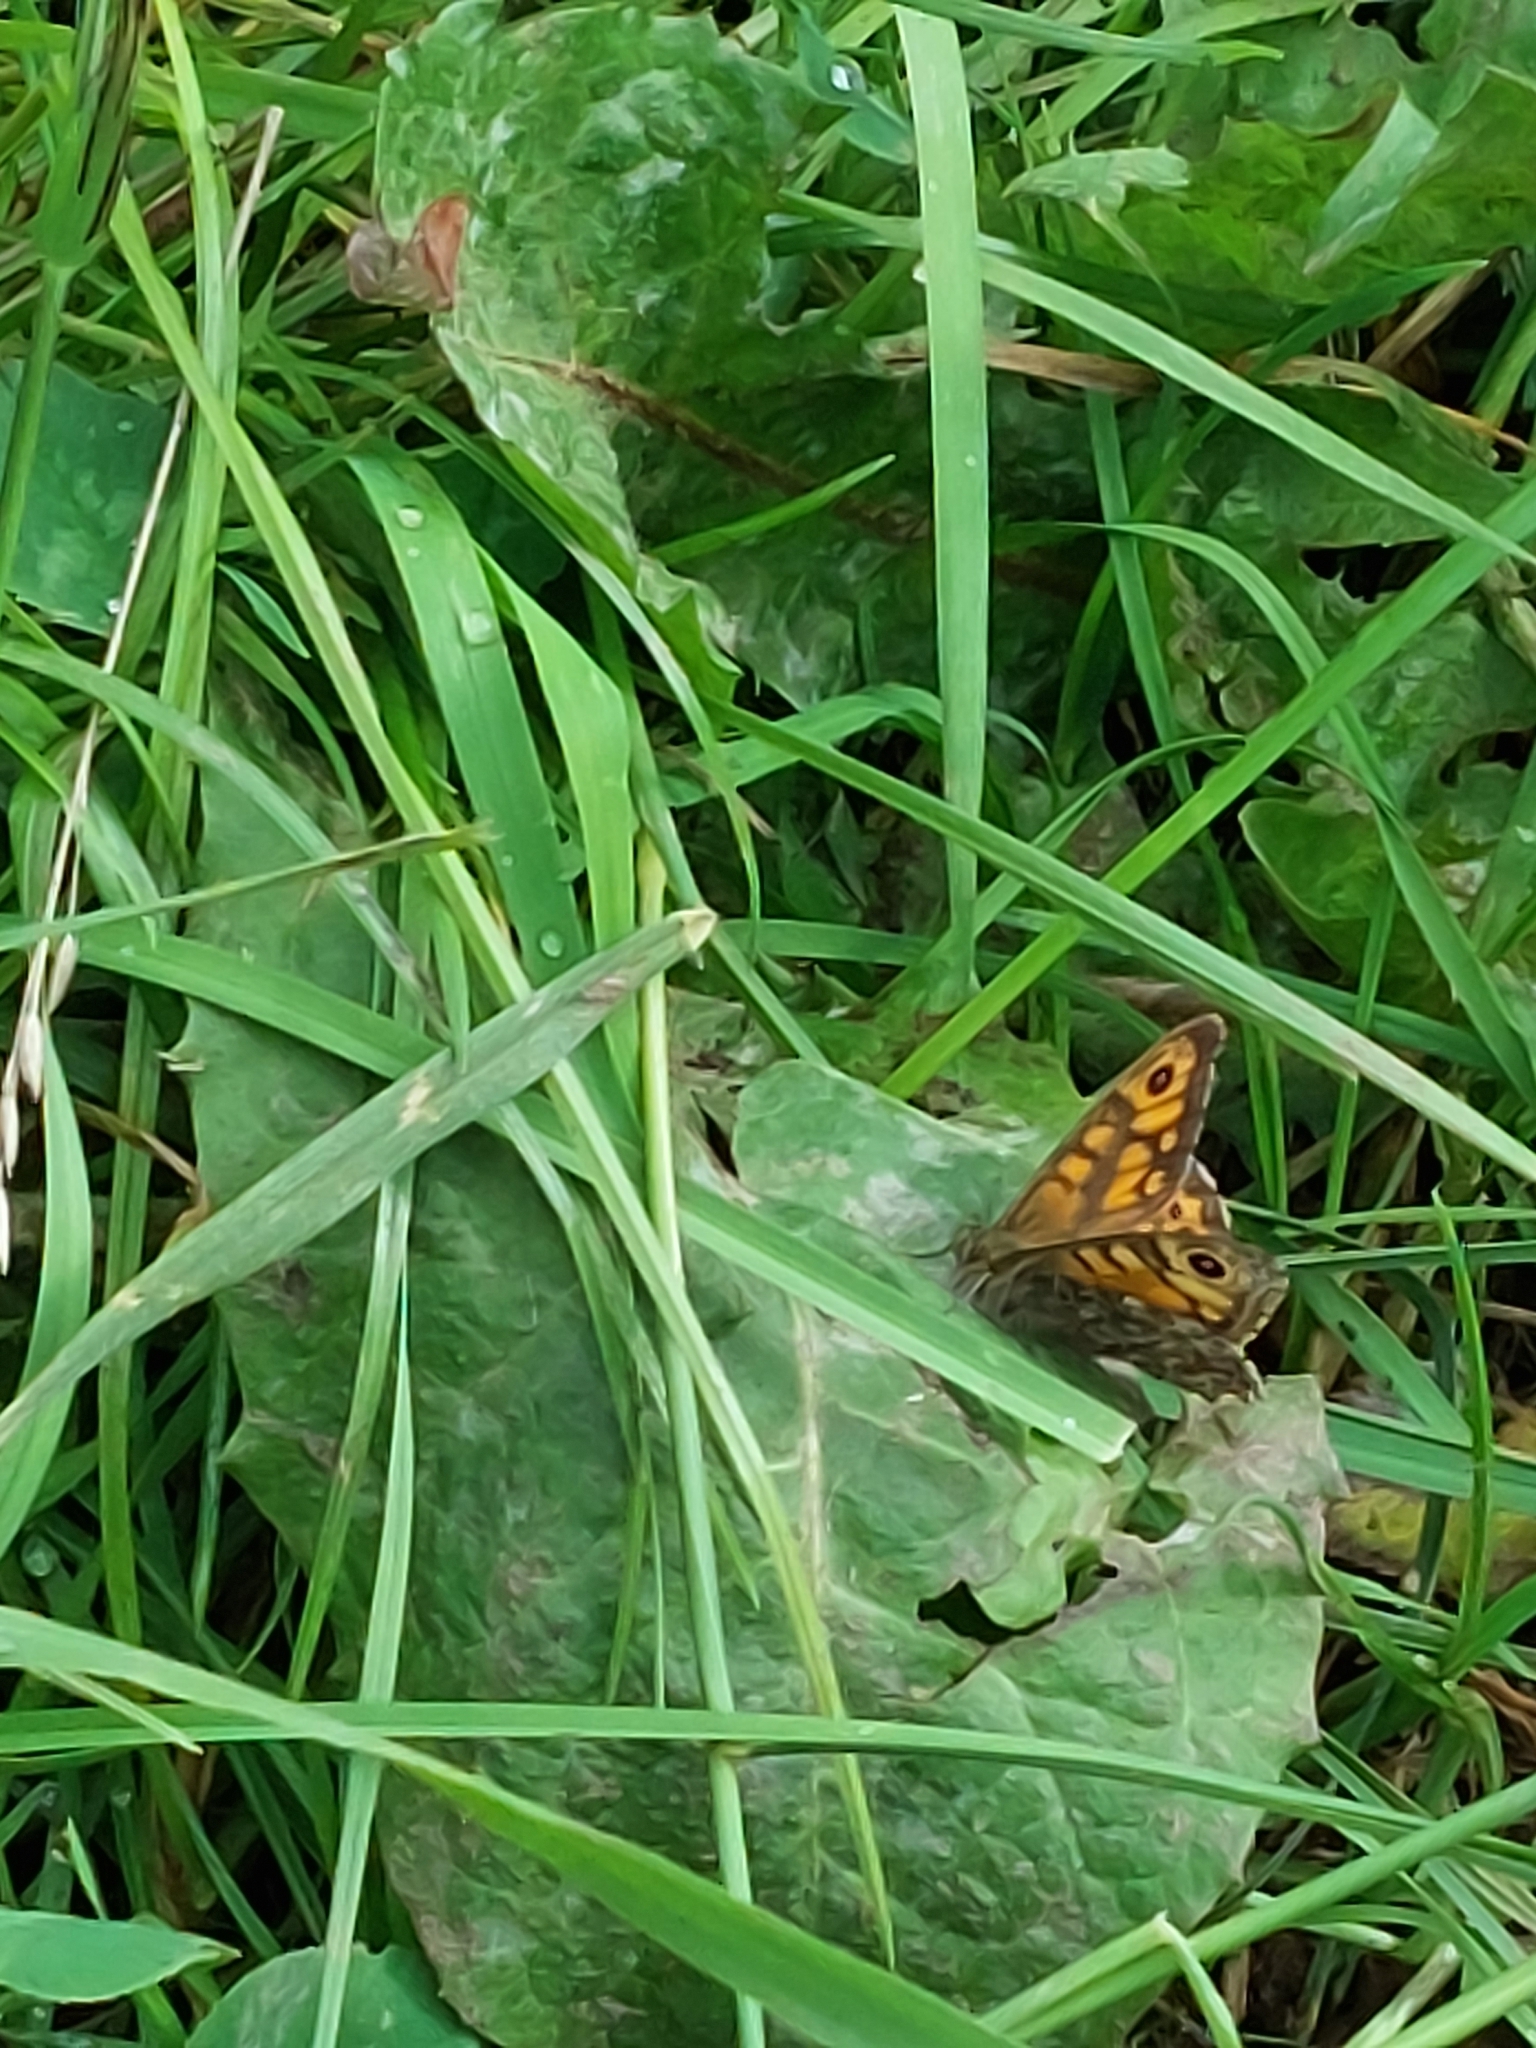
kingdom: Animalia
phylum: Arthropoda
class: Insecta
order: Lepidoptera
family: Nymphalidae
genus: Pararge
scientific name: Pararge Lasiommata megera
